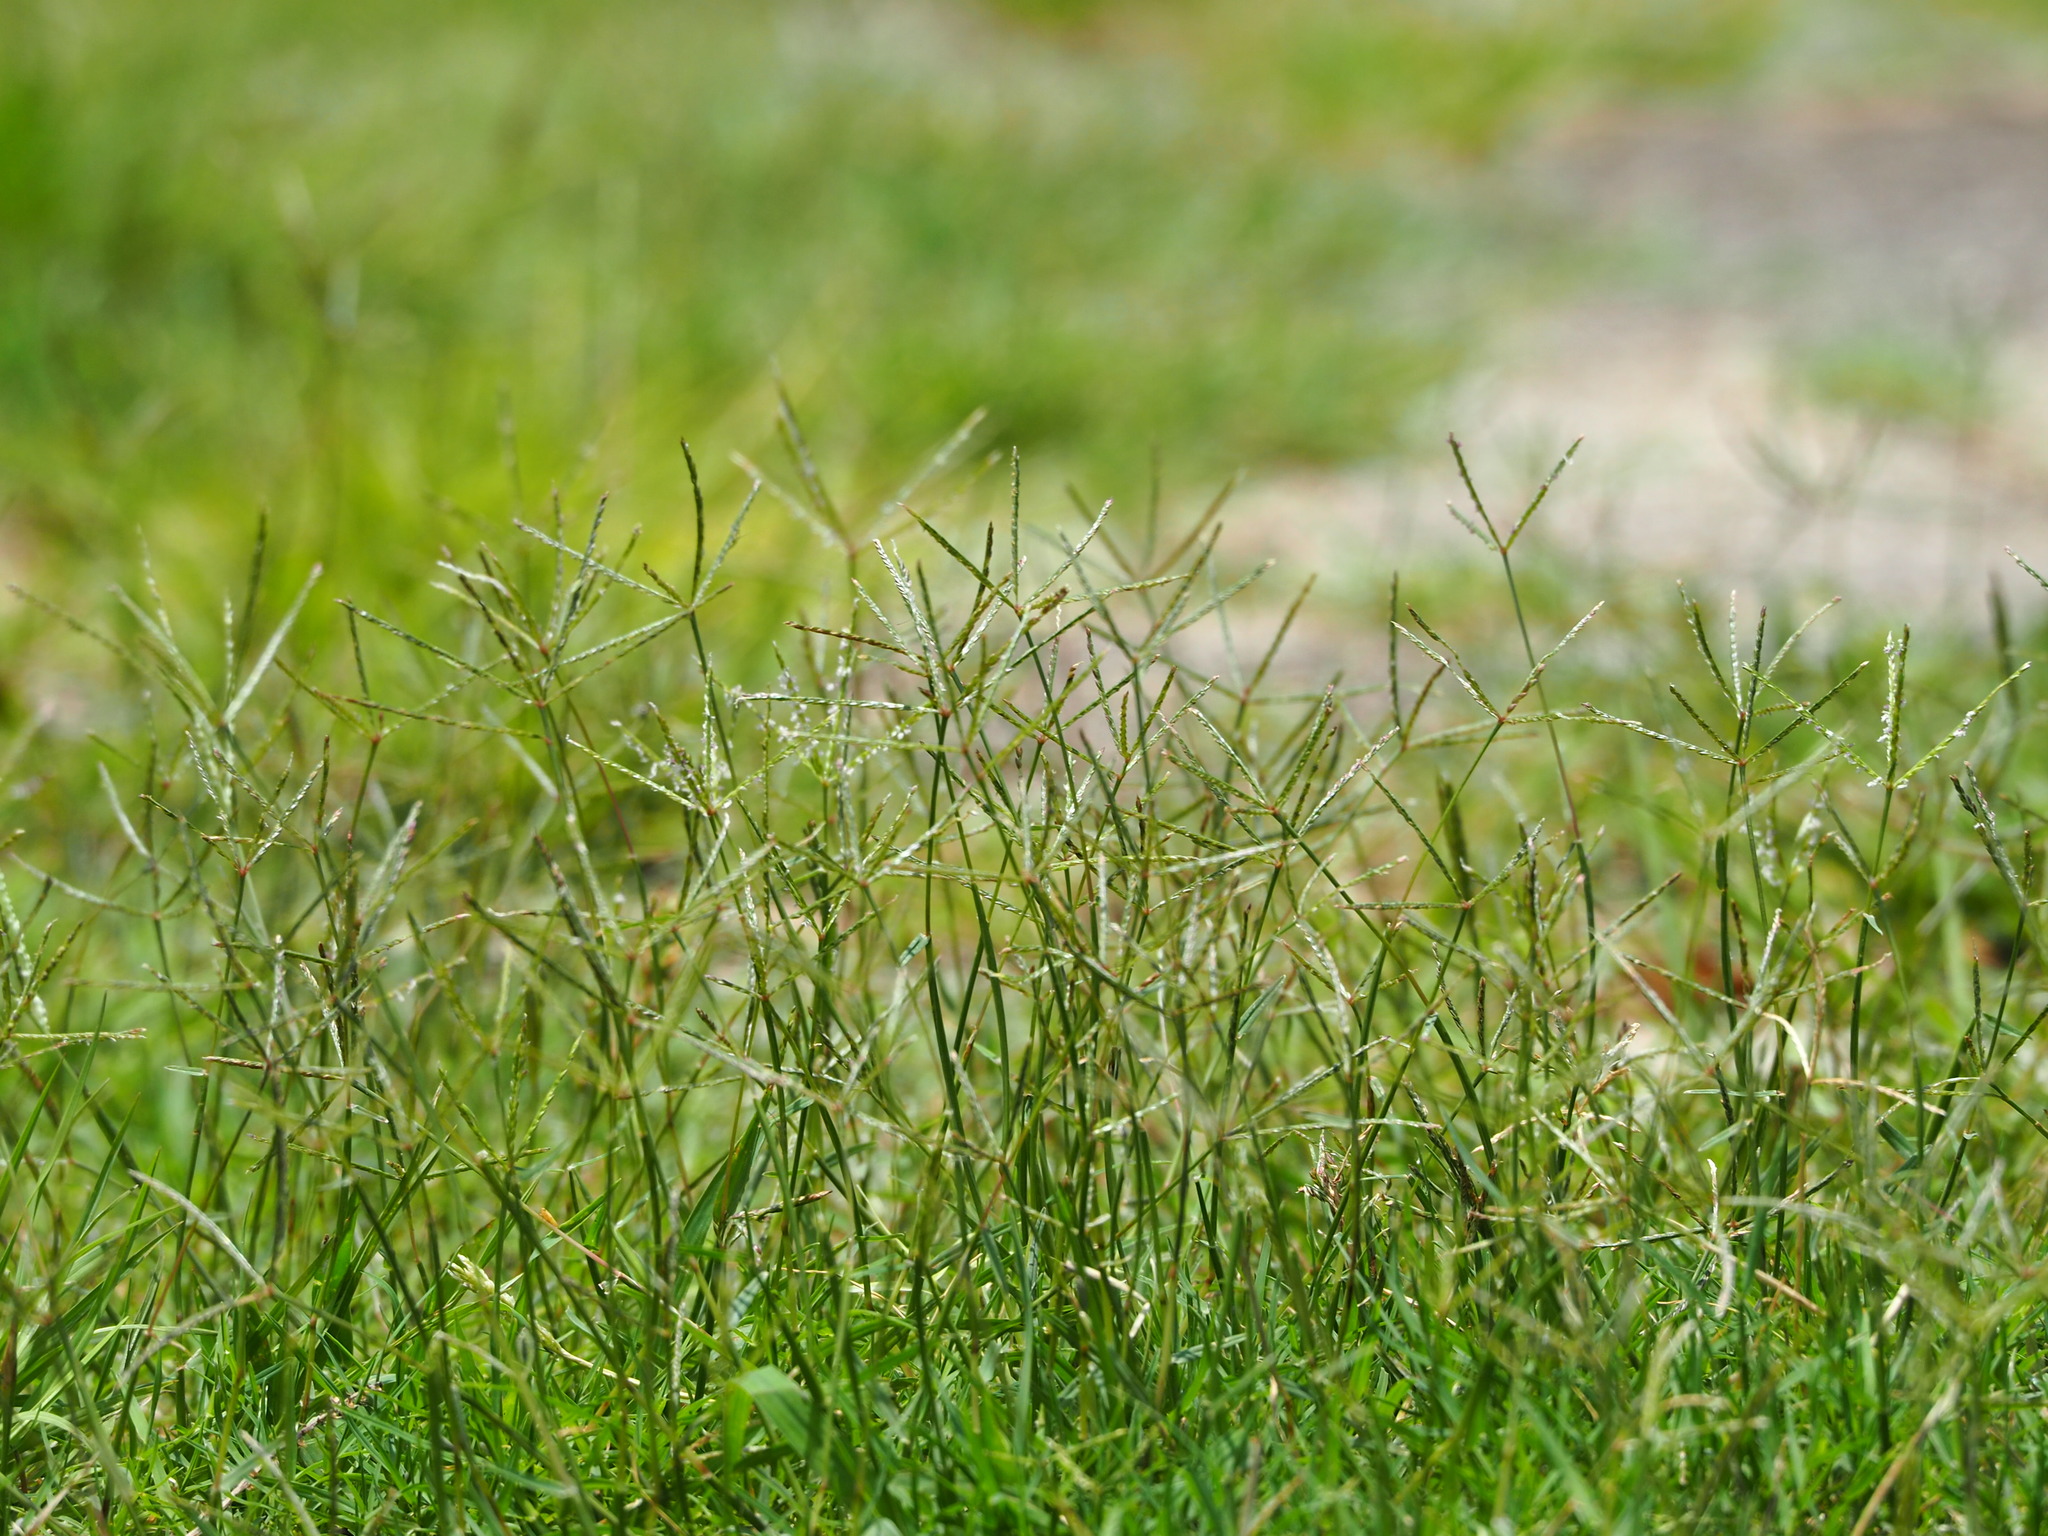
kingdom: Plantae
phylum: Tracheophyta
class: Liliopsida
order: Poales
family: Poaceae
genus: Cynodon
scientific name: Cynodon dactylon
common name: Bermuda grass
